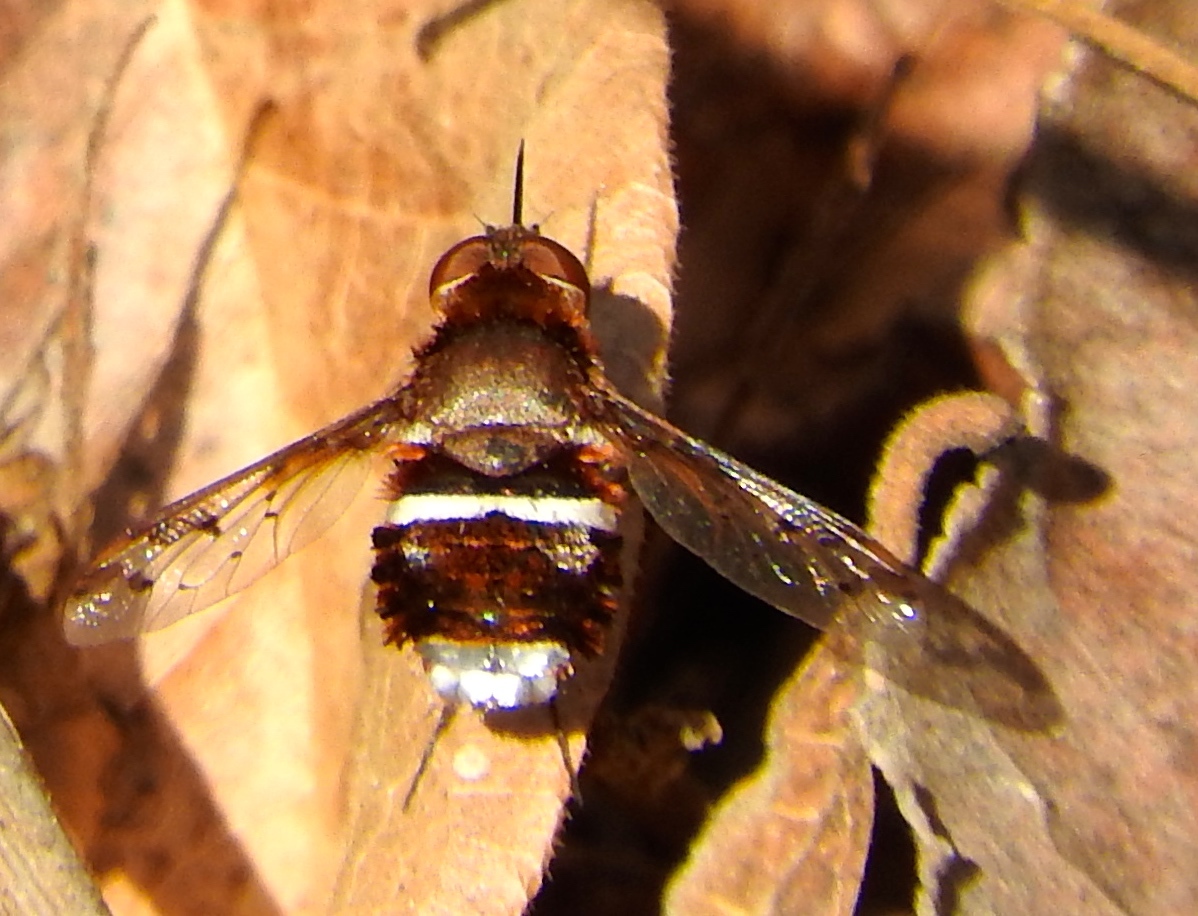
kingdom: Animalia
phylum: Arthropoda
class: Insecta
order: Diptera
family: Bombyliidae
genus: Lepidanthrax
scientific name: Lepidanthrax
